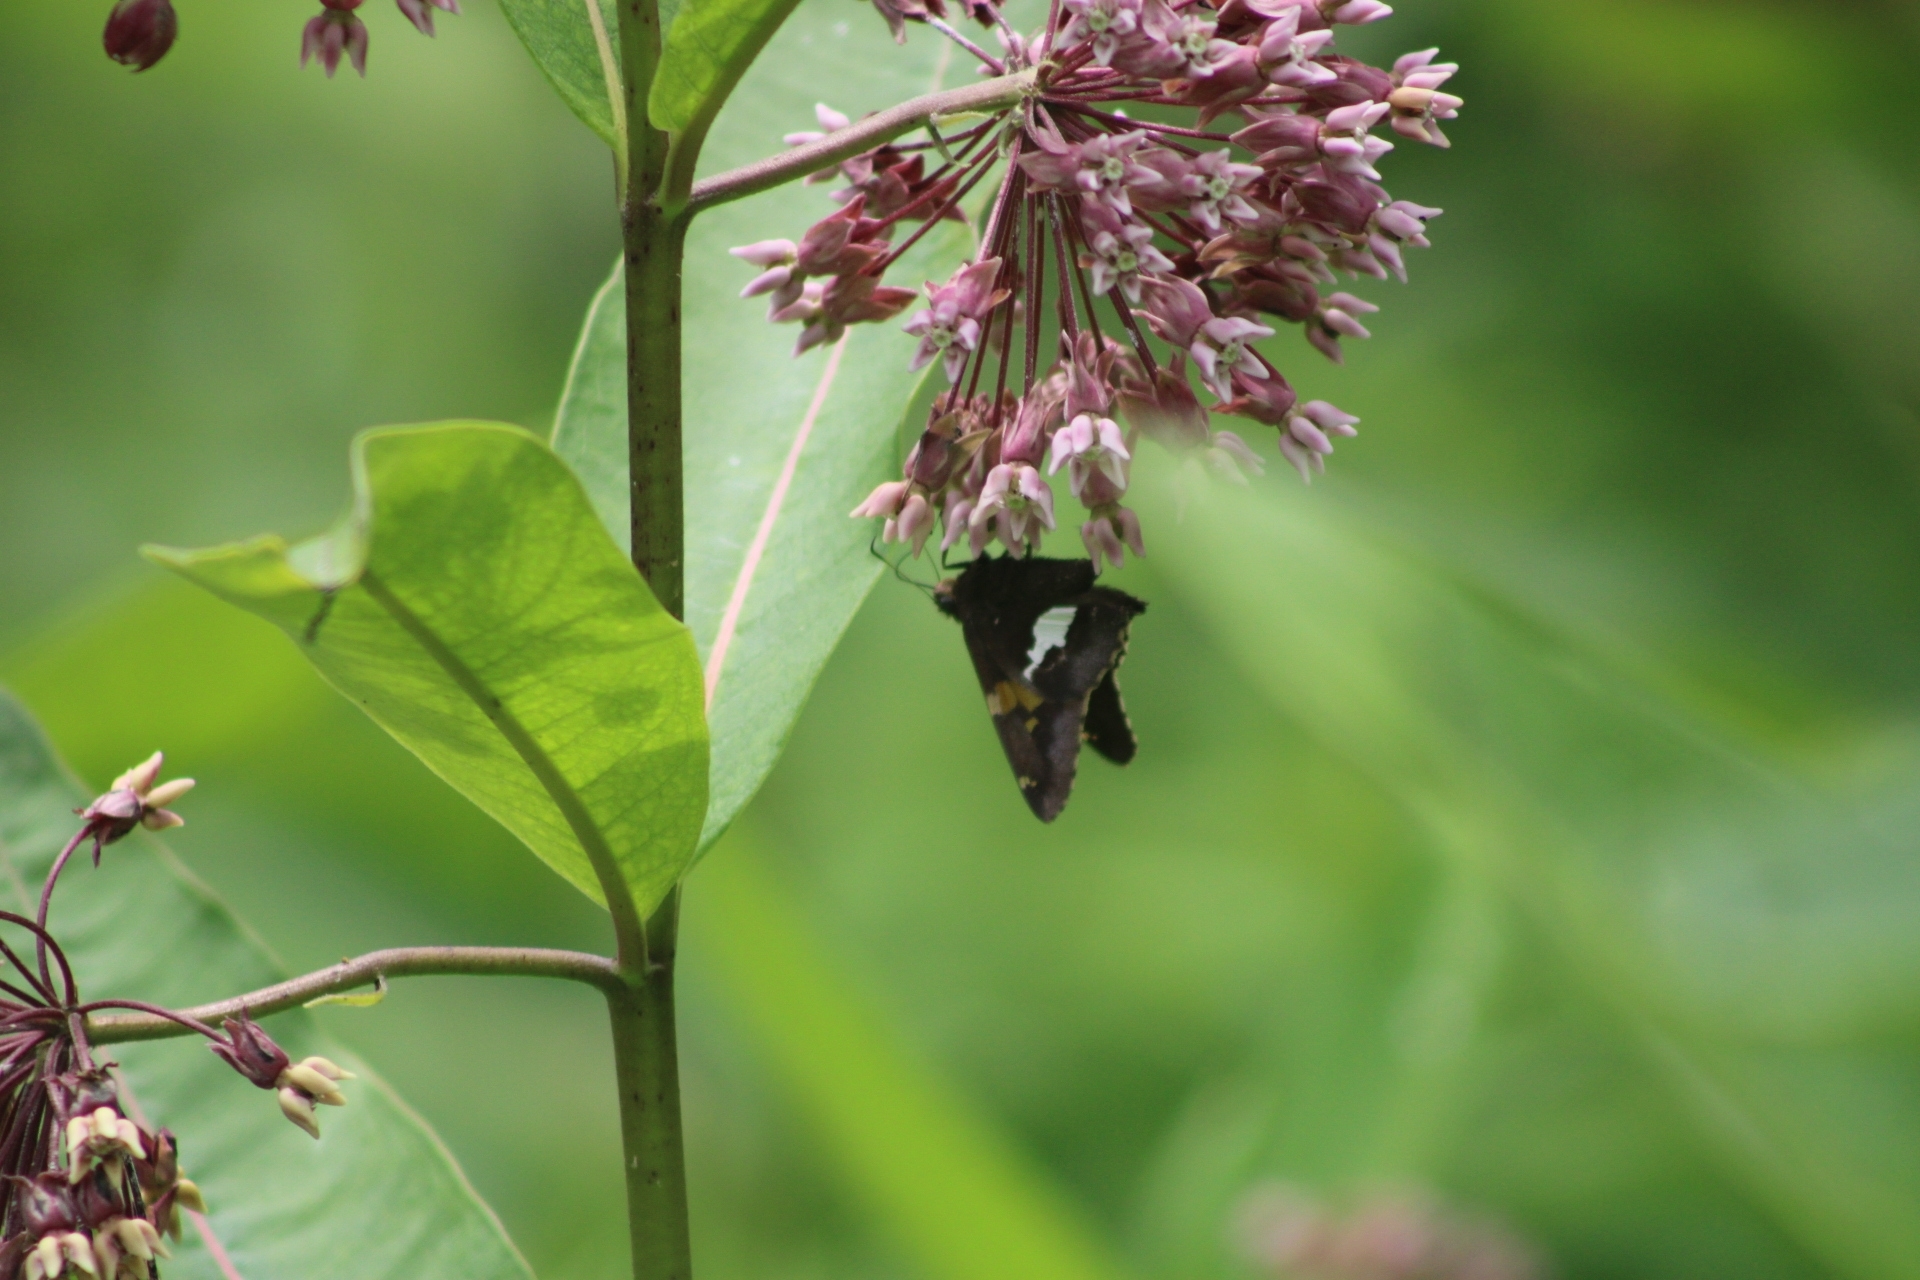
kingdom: Animalia
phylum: Arthropoda
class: Insecta
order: Lepidoptera
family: Hesperiidae
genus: Epargyreus
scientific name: Epargyreus clarus
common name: Silver-spotted skipper
